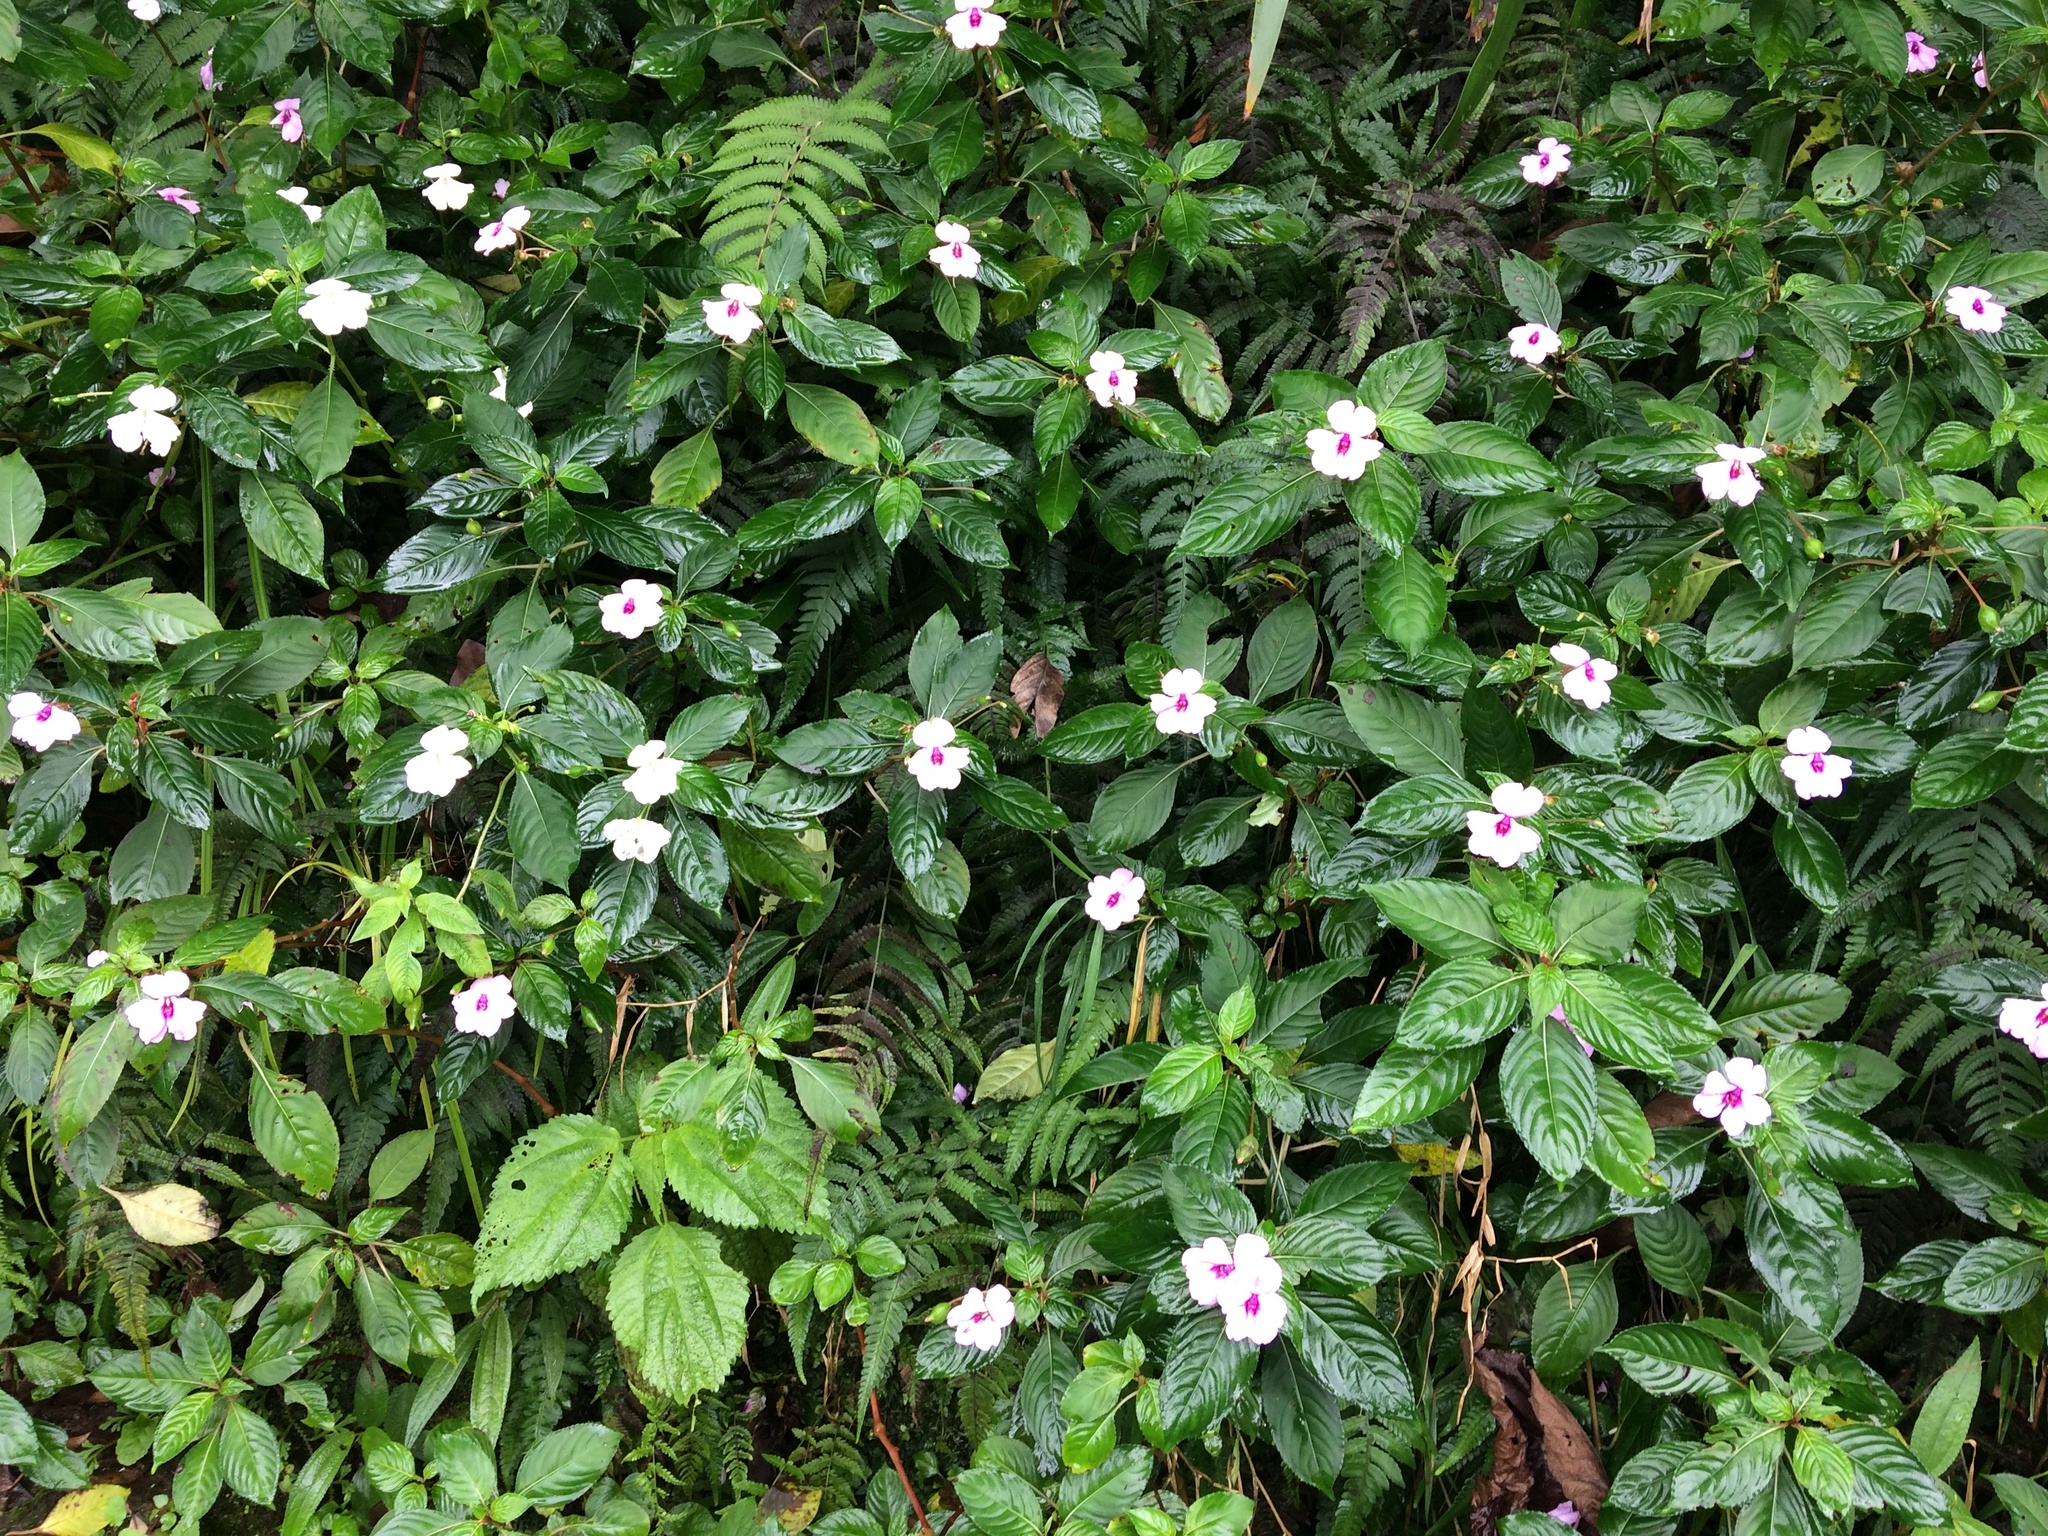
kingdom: Plantae
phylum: Tracheophyta
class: Magnoliopsida
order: Ericales
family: Balsaminaceae
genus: Impatiens
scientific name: Impatiens flaccida
